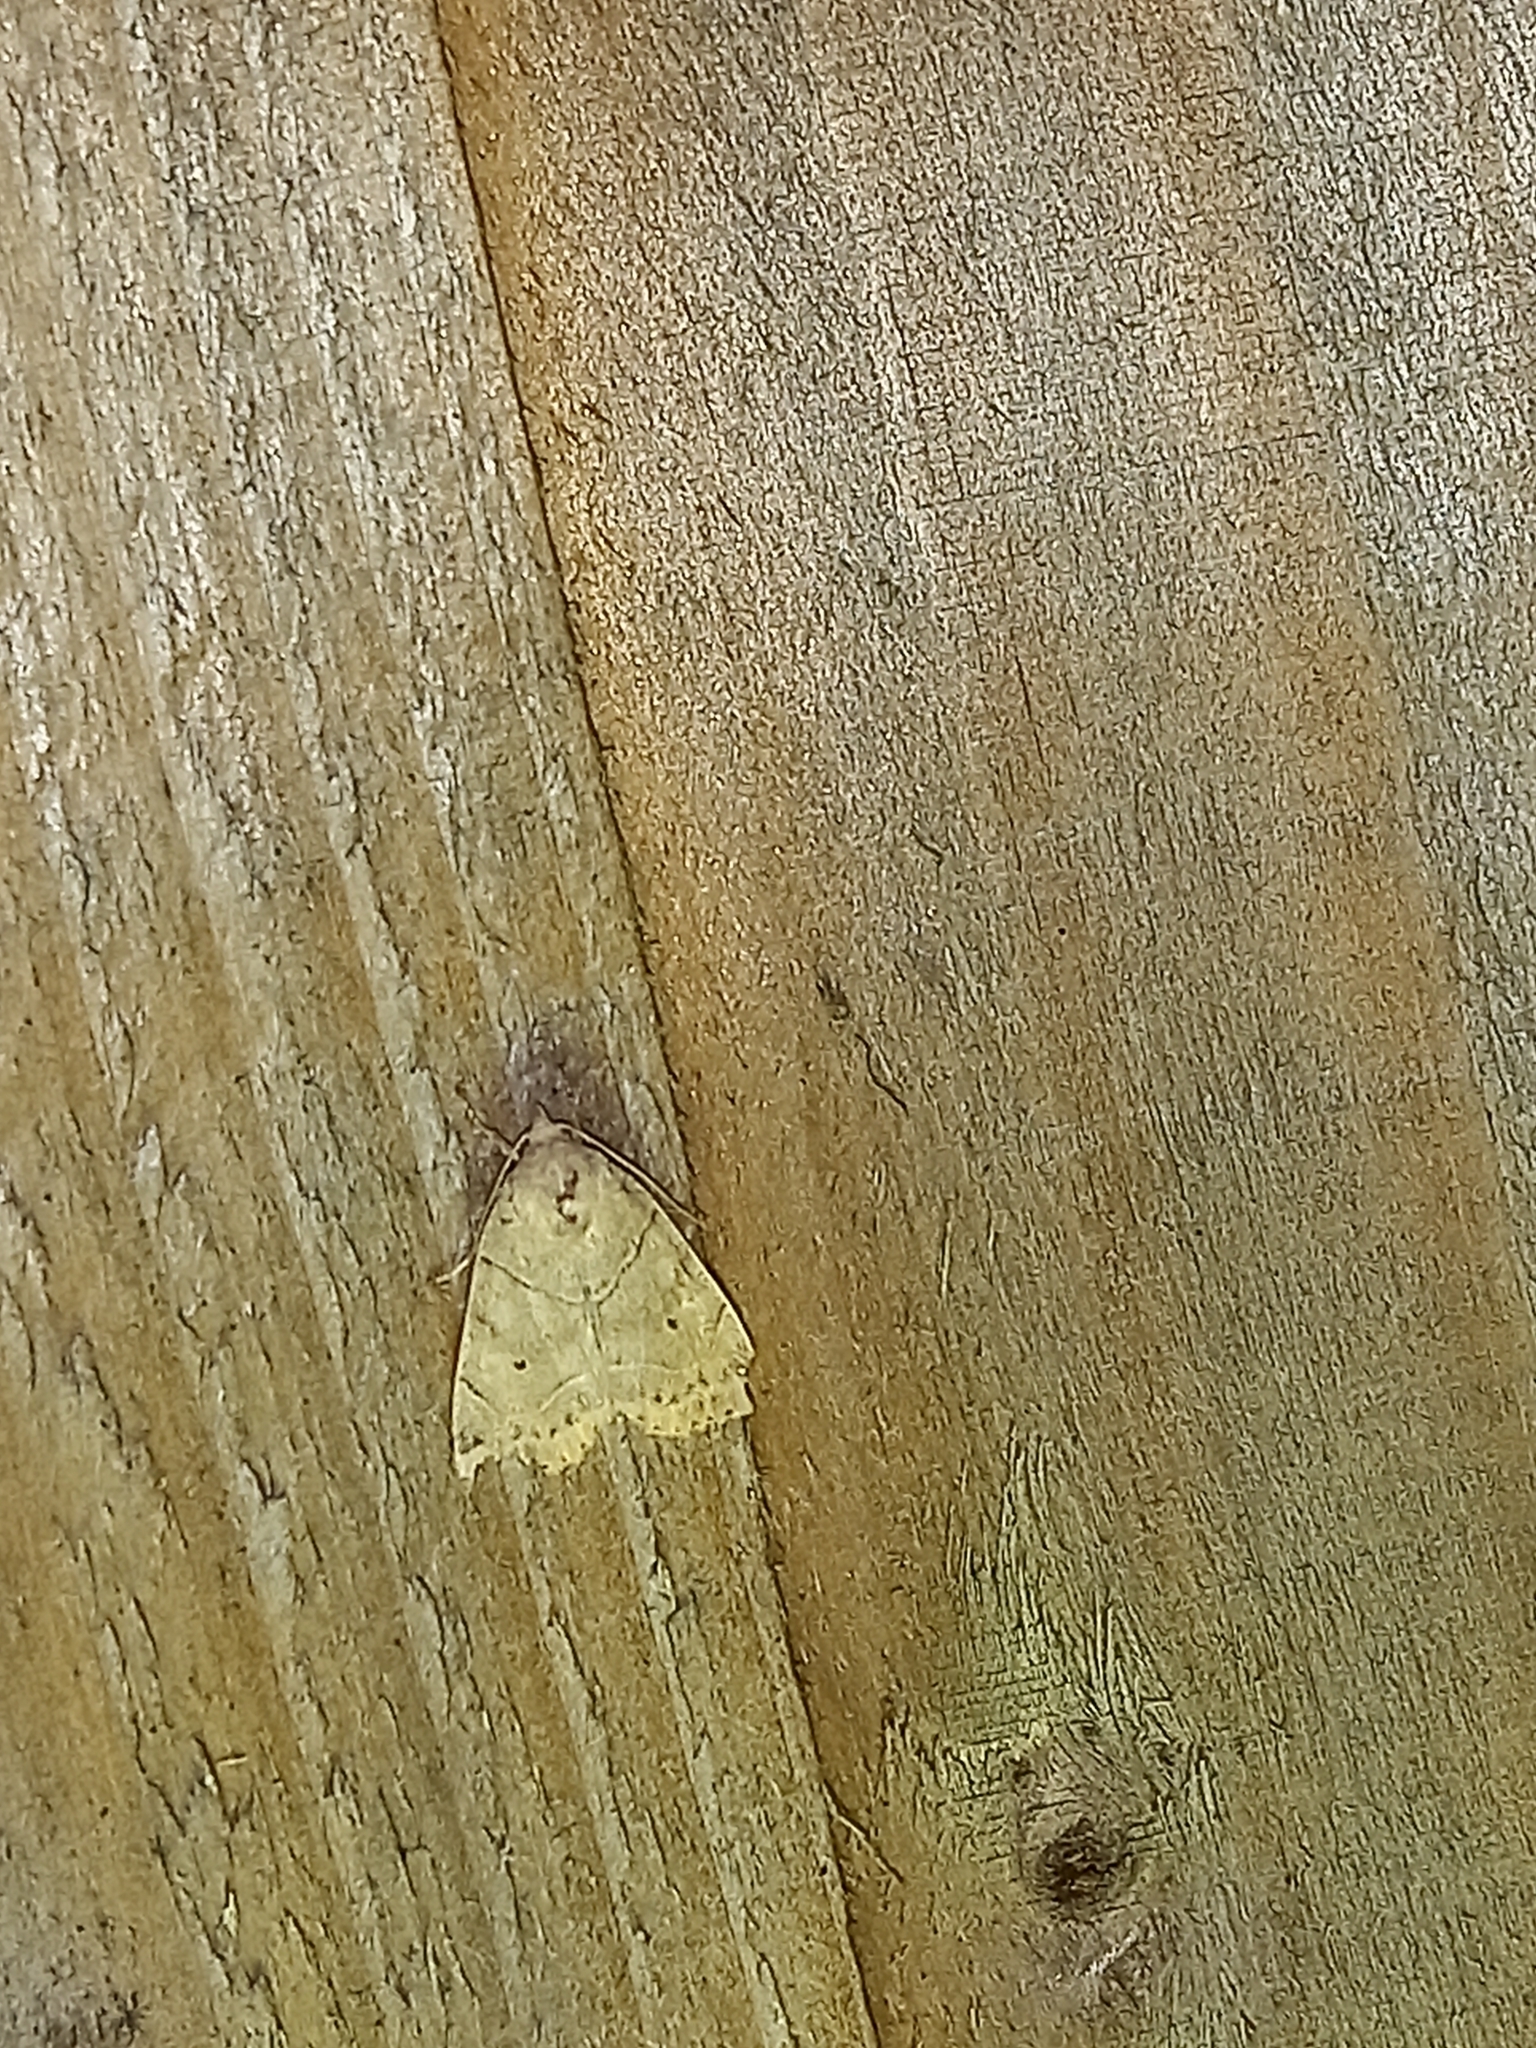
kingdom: Animalia
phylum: Arthropoda
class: Insecta
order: Lepidoptera
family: Noctuidae
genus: Cosmia
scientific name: Cosmia trapezina
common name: Dun-bar
